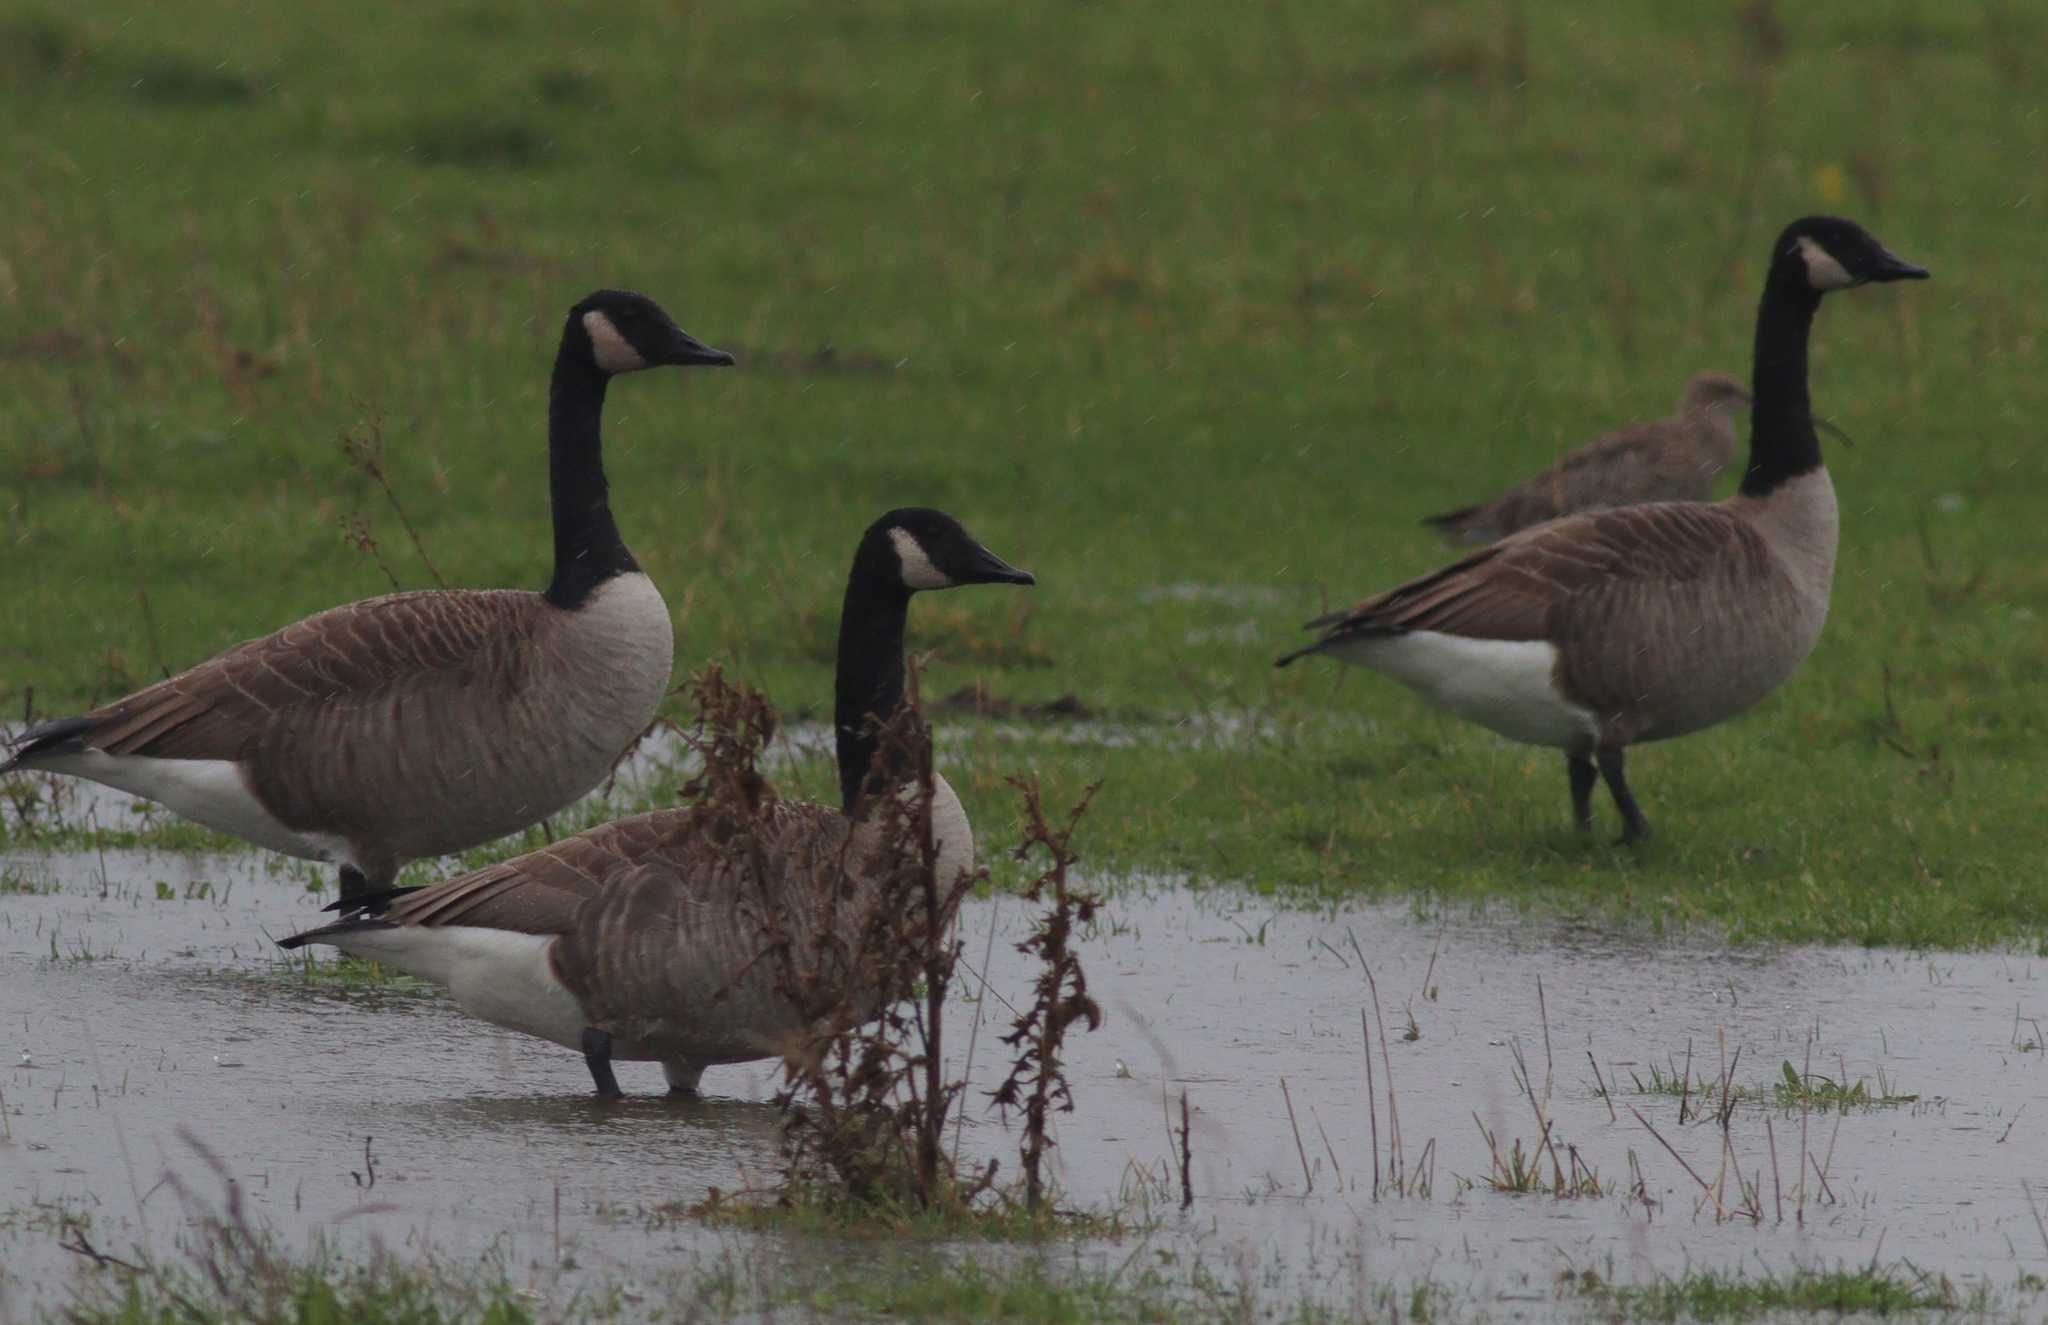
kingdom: Animalia
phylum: Chordata
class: Aves
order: Anseriformes
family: Anatidae
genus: Branta
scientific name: Branta canadensis
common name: Canada goose
